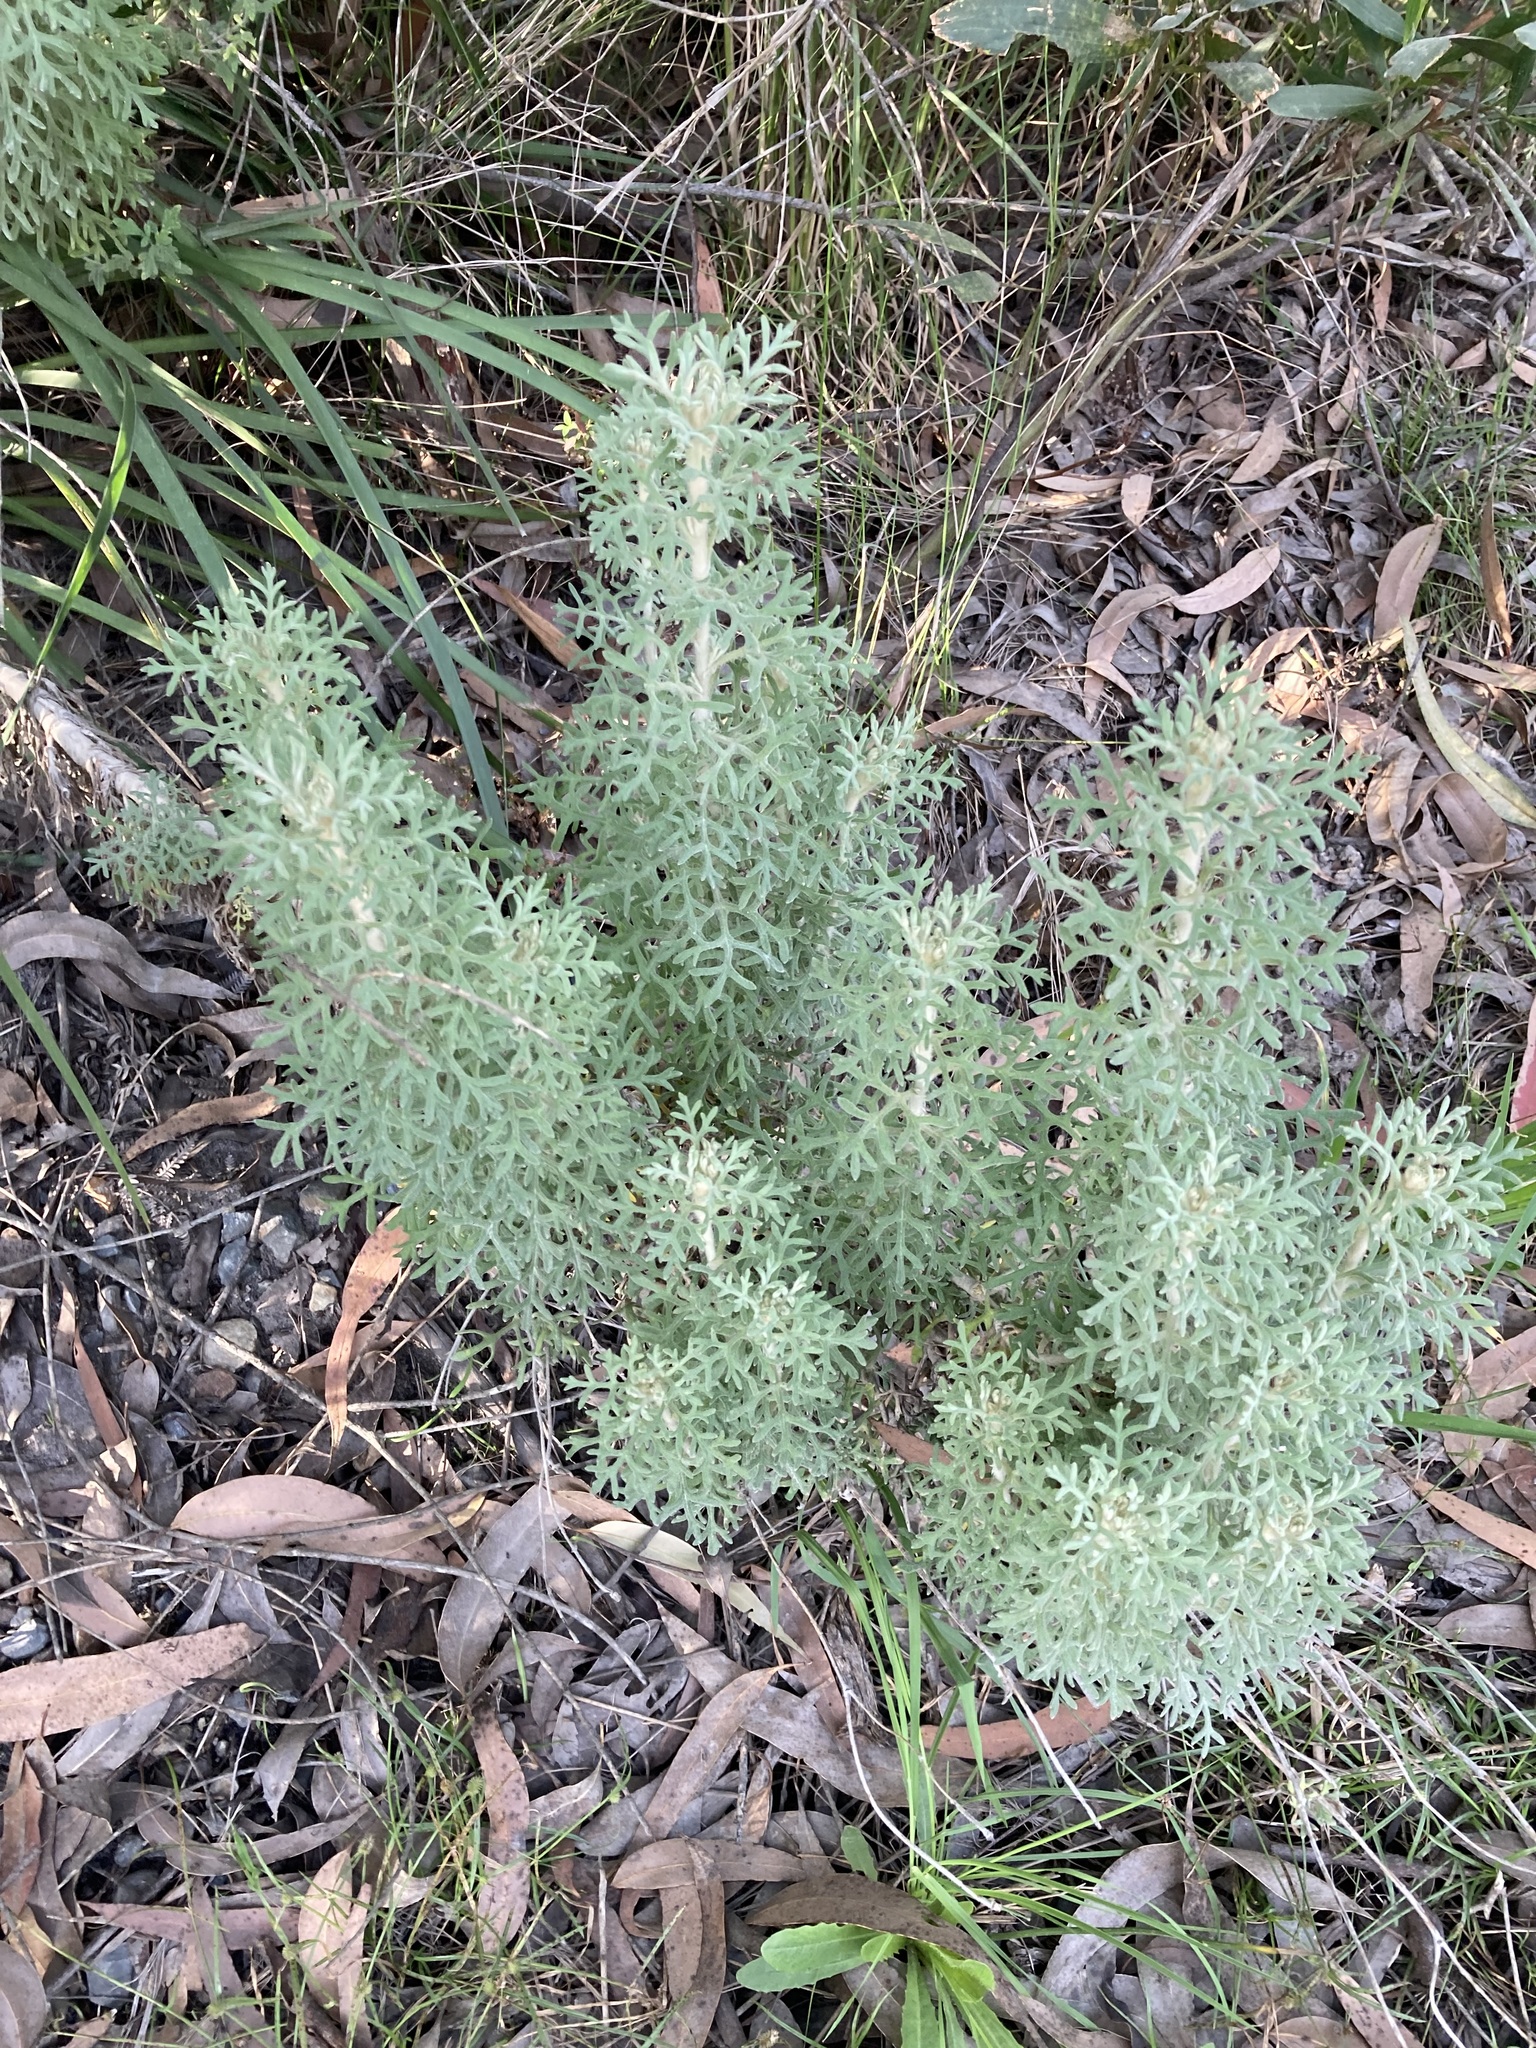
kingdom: Plantae
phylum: Tracheophyta
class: Magnoliopsida
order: Apiales
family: Apiaceae
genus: Actinotus
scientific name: Actinotus helianthi
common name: Flannel-flower
